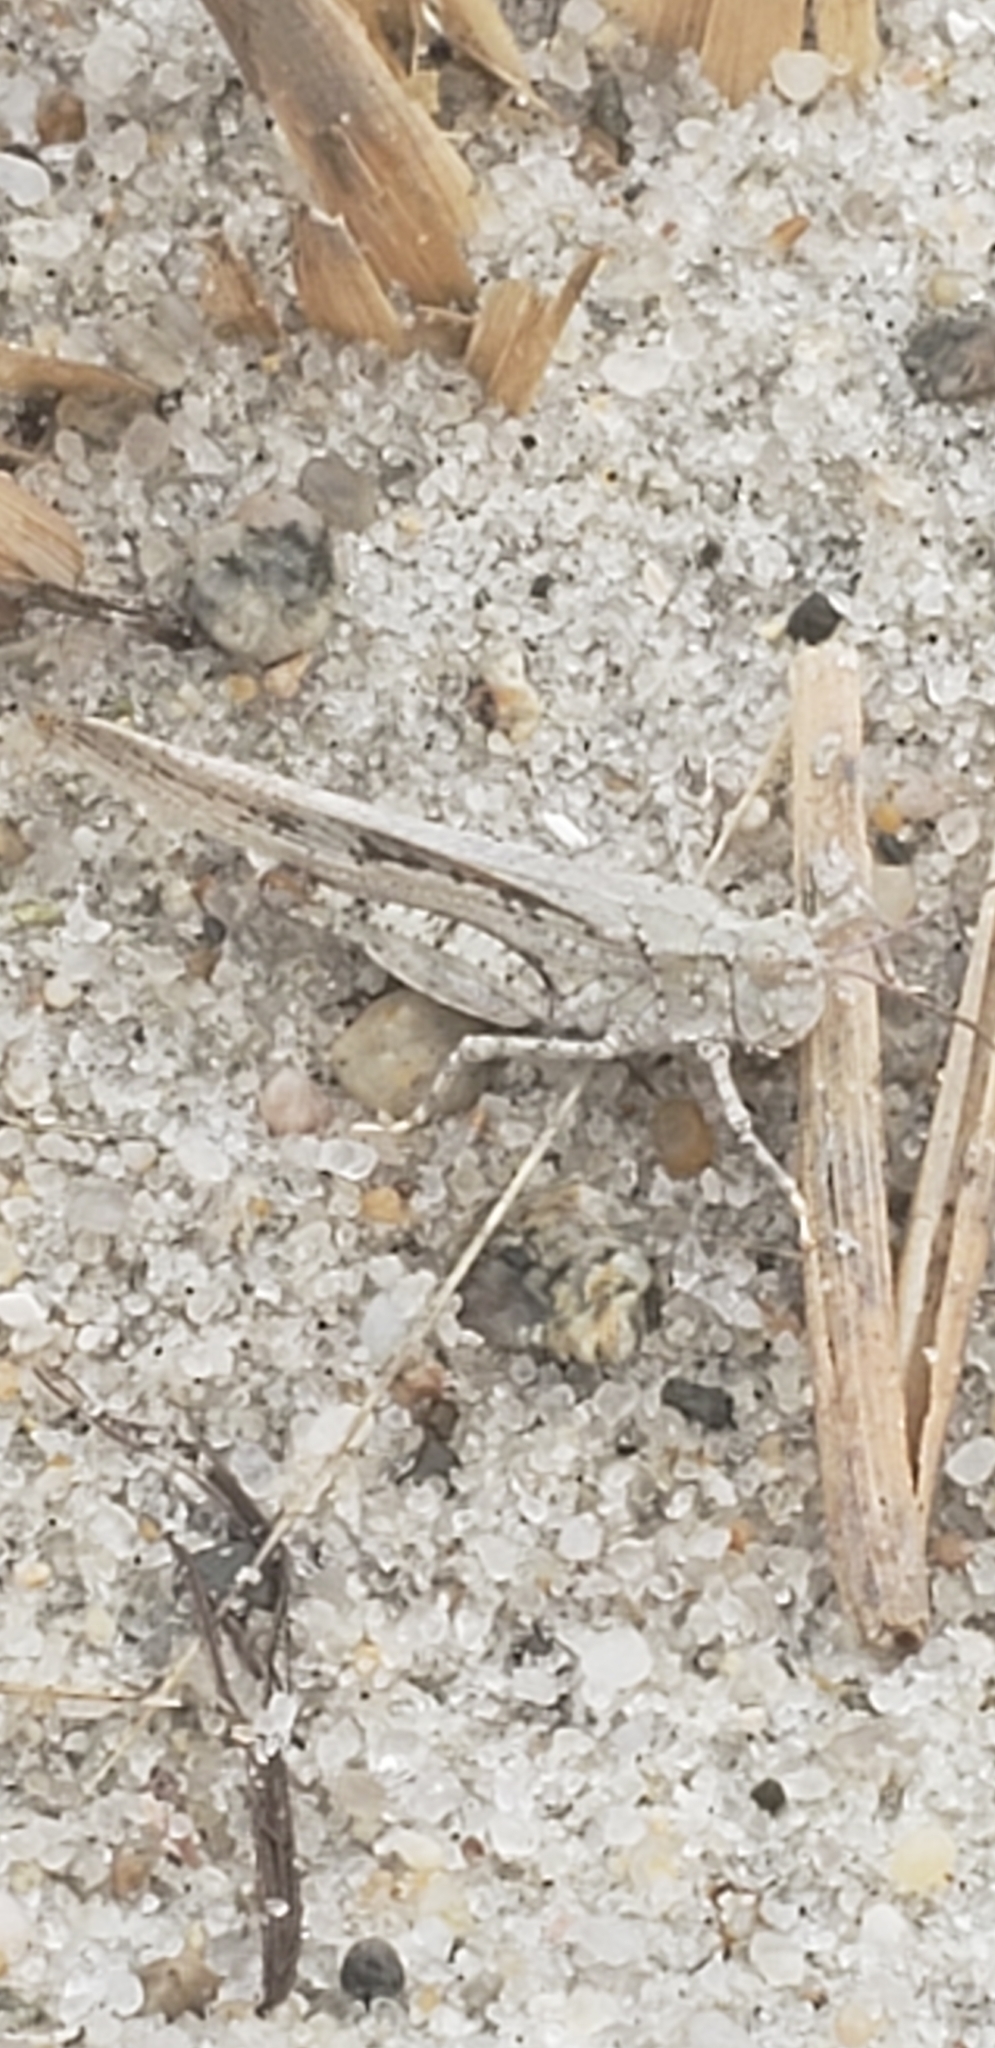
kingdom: Animalia
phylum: Arthropoda
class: Insecta
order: Orthoptera
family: Acrididae
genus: Trimerotropis
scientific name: Trimerotropis maritima
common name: Seaside locust
